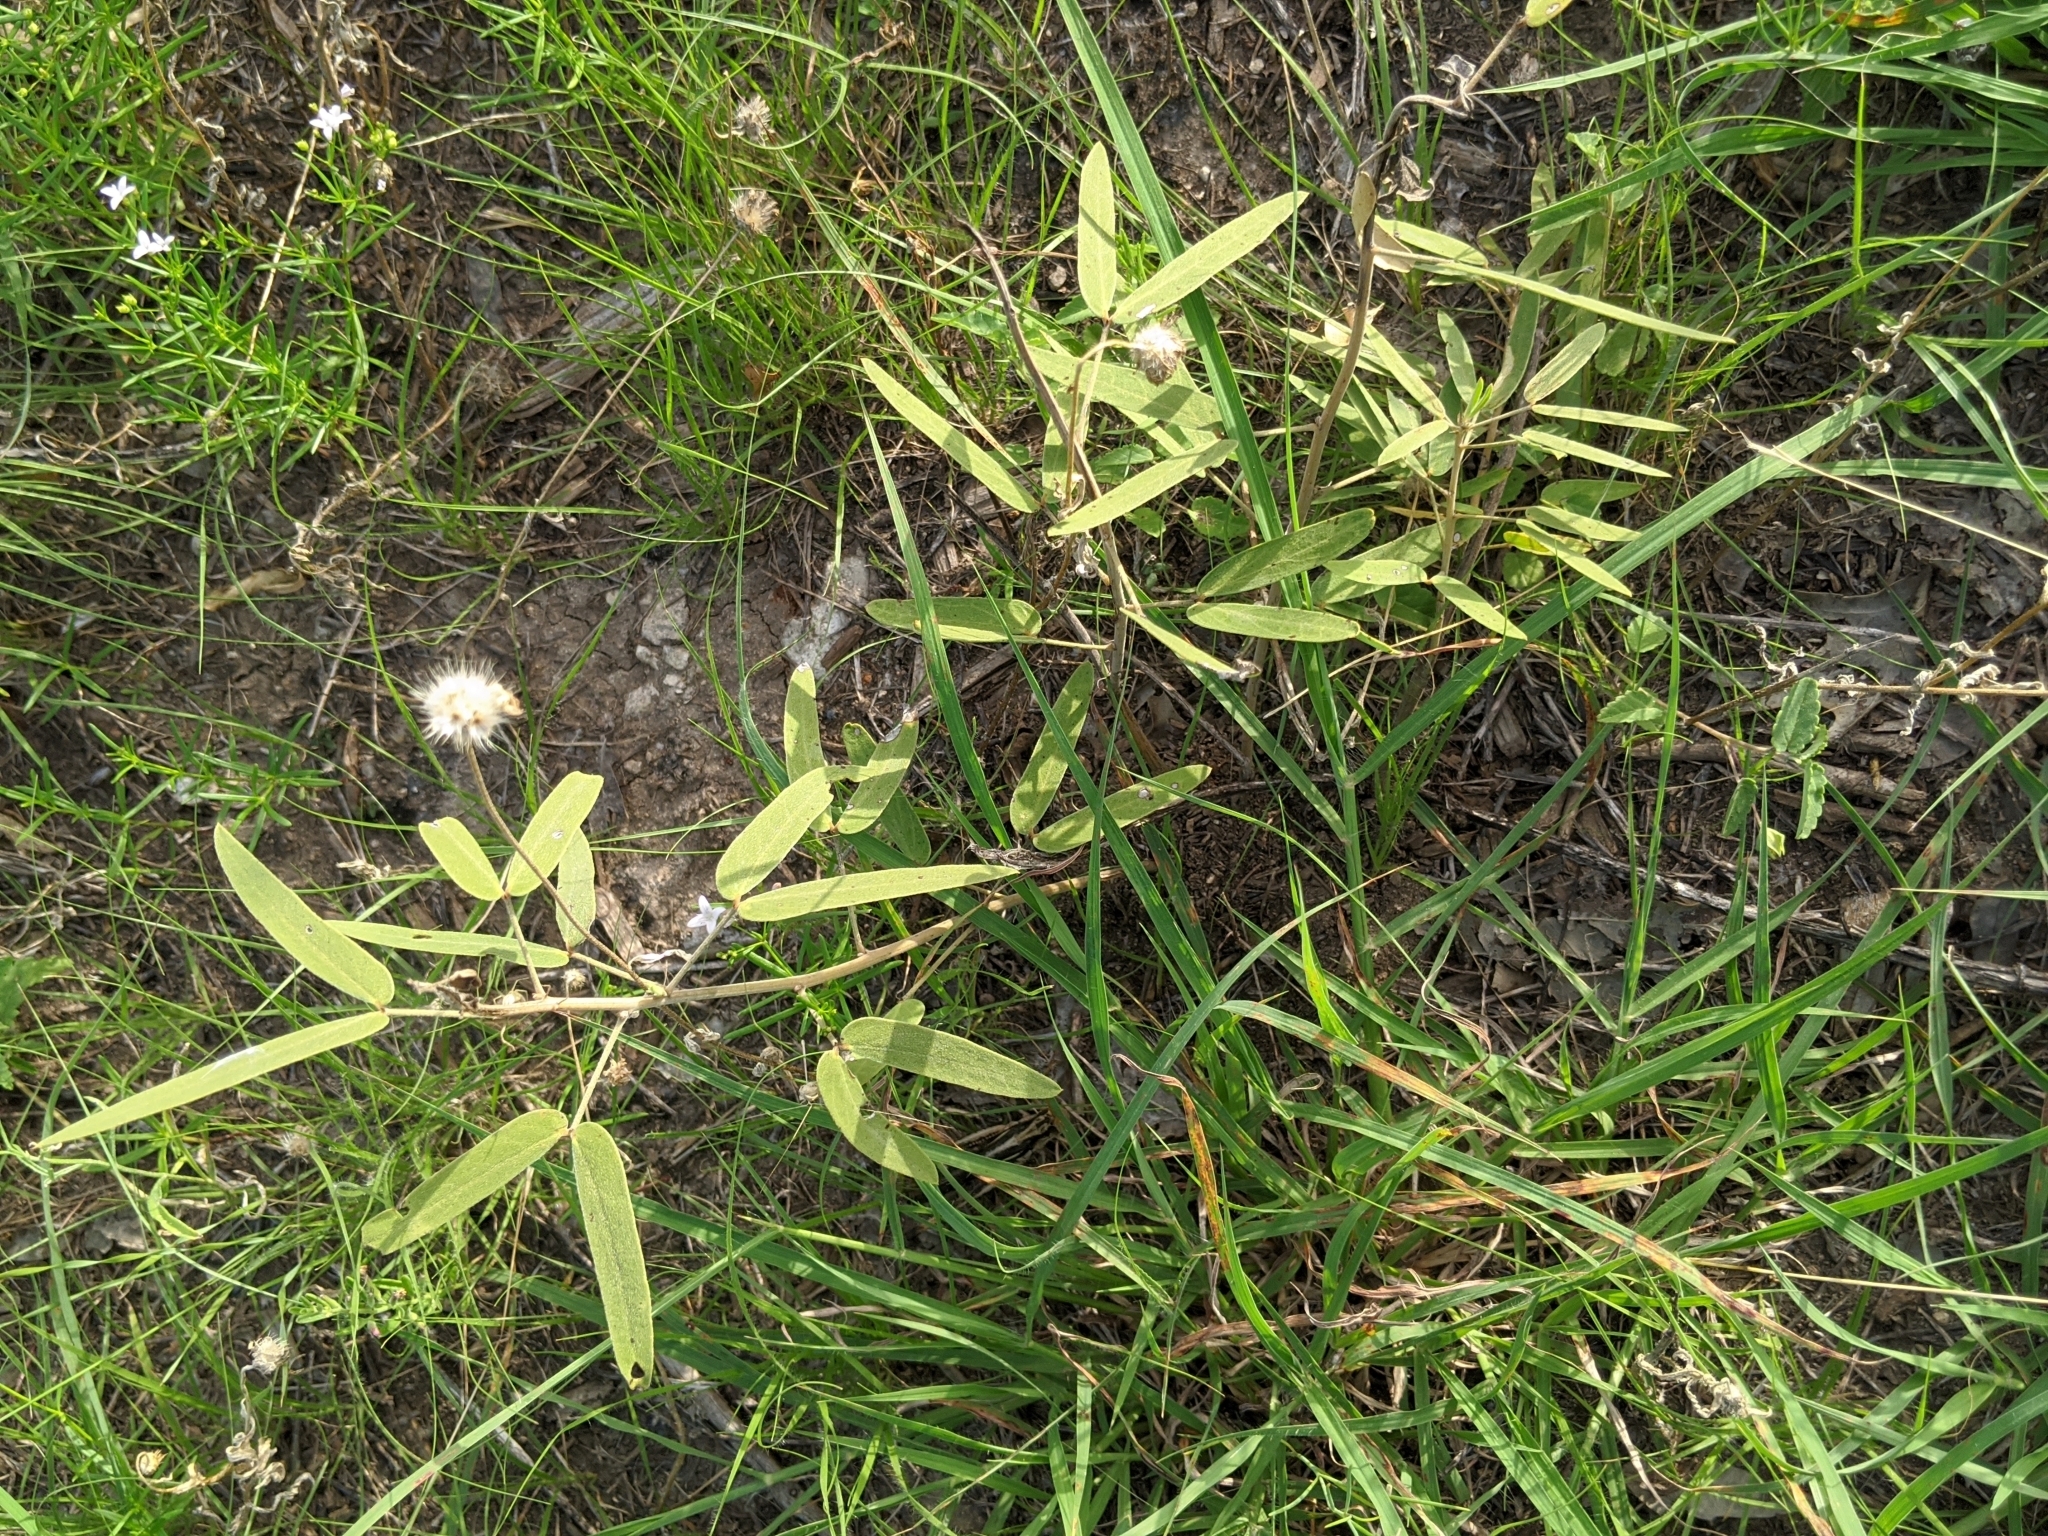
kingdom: Plantae
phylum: Tracheophyta
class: Magnoliopsida
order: Fabales
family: Fabaceae
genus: Senna
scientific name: Senna roemeriana
